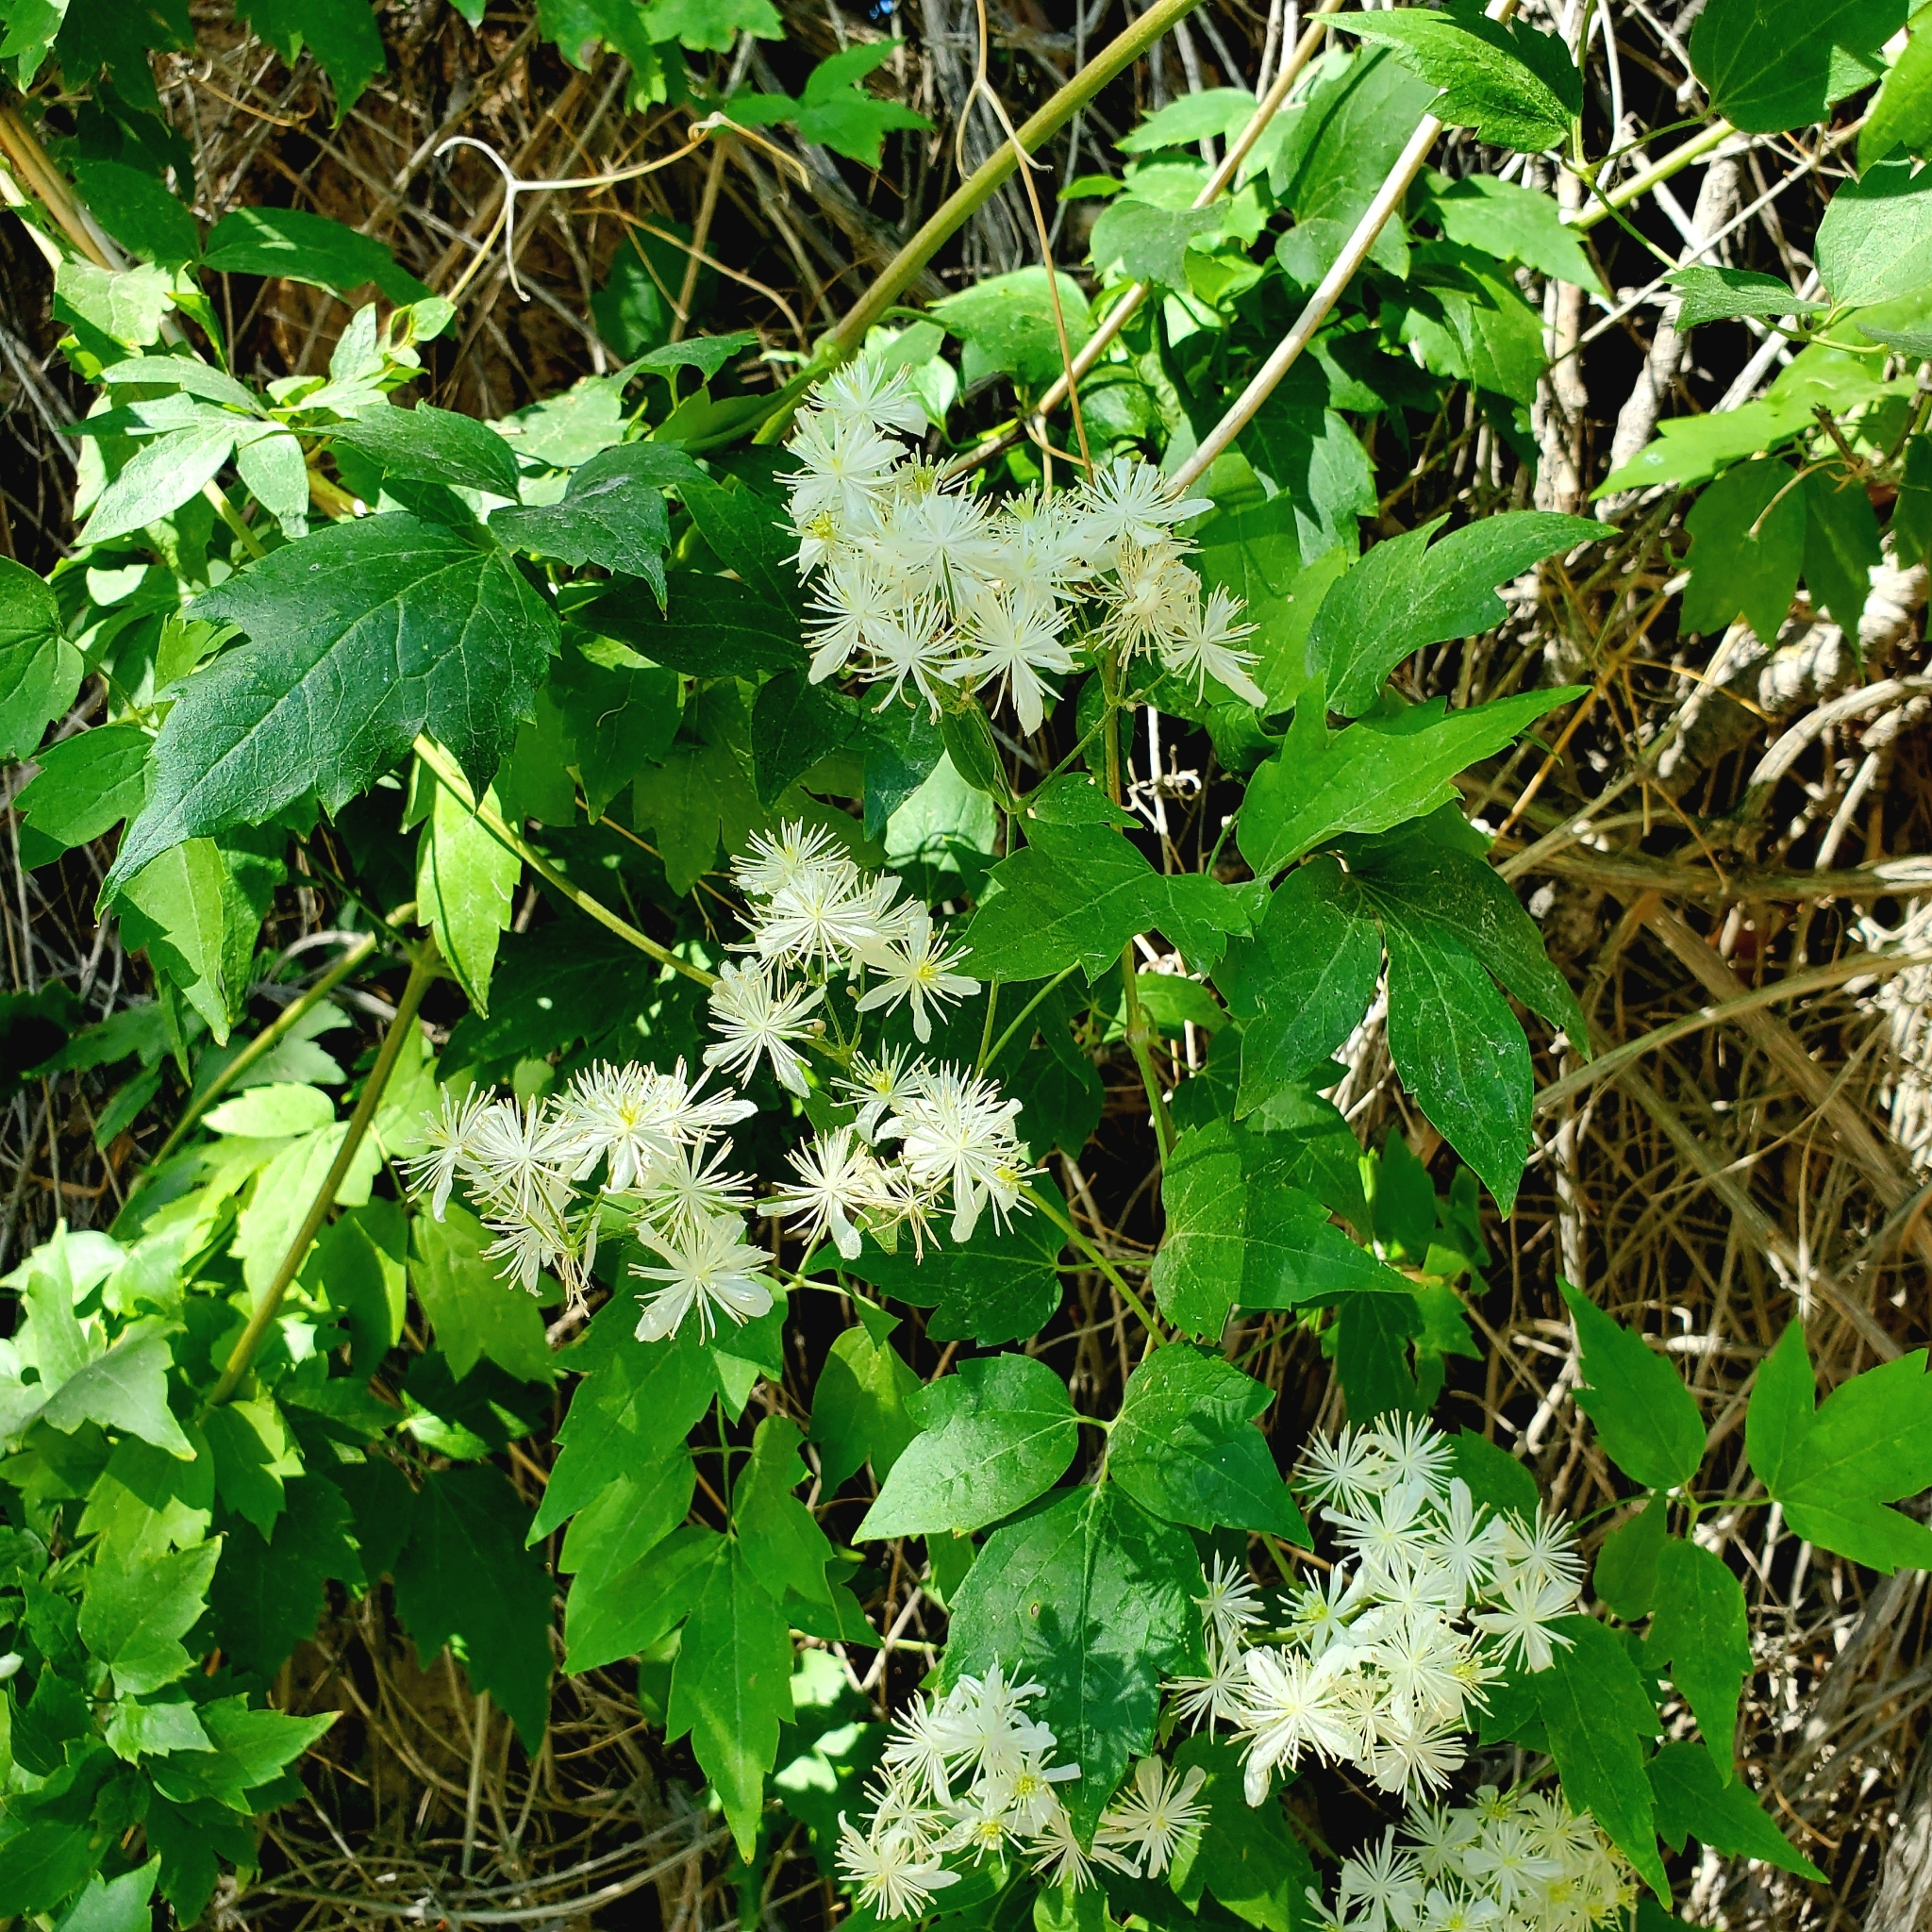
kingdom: Plantae
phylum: Tracheophyta
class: Magnoliopsida
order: Ranunculales
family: Ranunculaceae
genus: Clematis
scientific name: Clematis ligusticifolia
